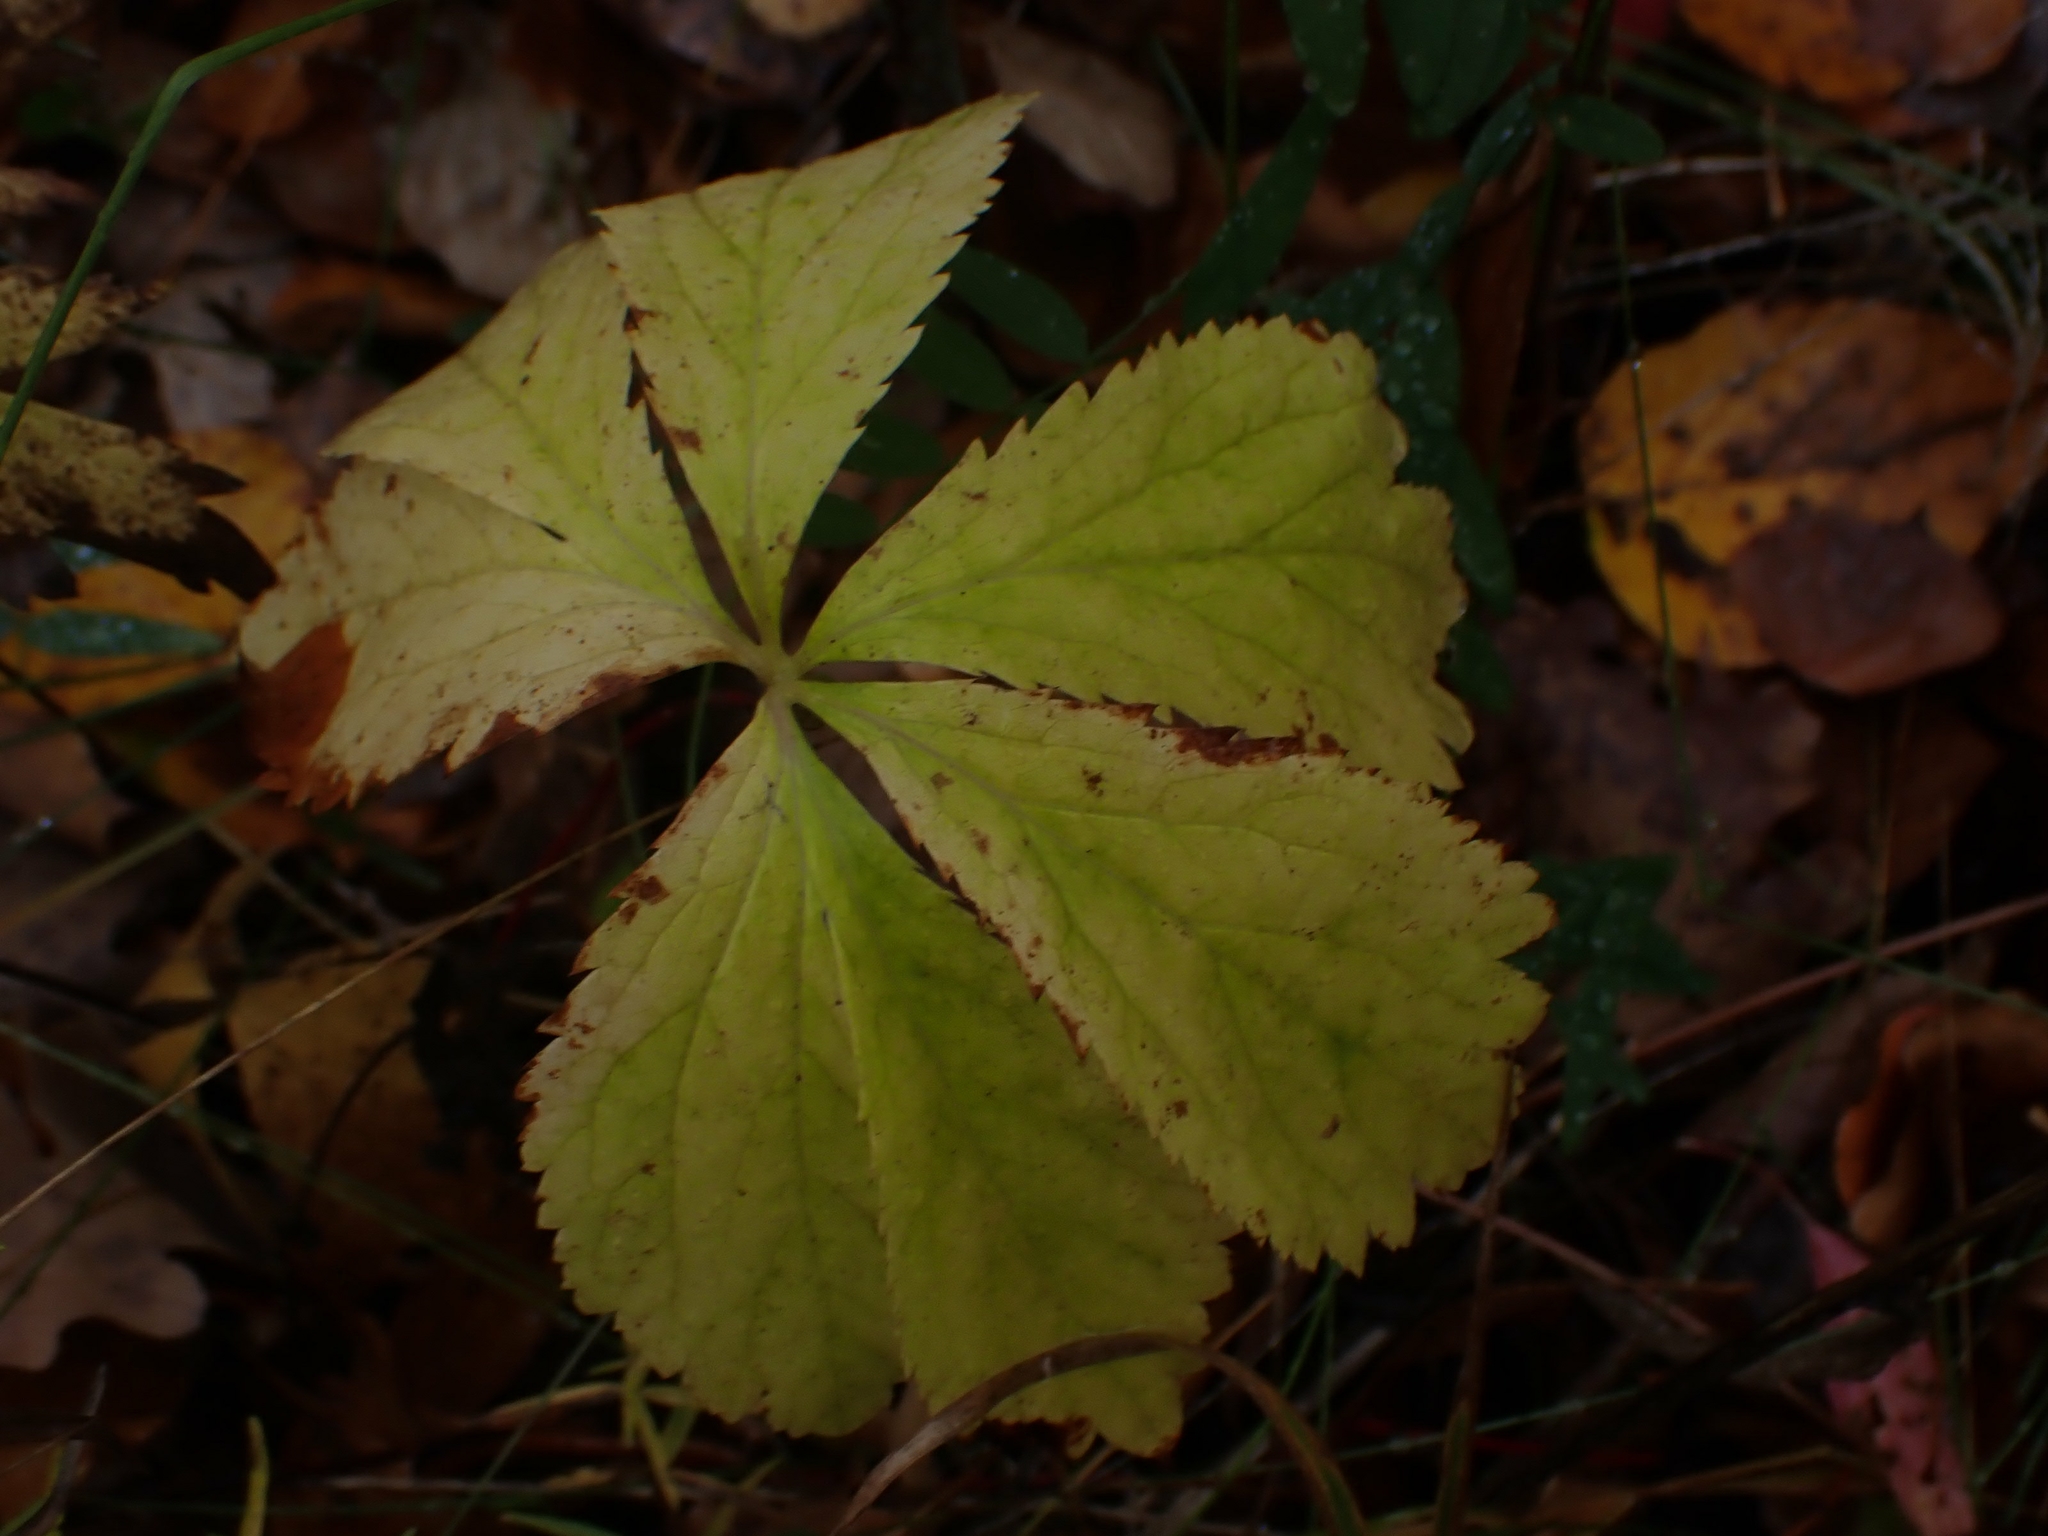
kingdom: Plantae
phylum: Tracheophyta
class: Magnoliopsida
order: Apiales
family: Apiaceae
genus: Sanicula
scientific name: Sanicula marilandica
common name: Black snakeroot
